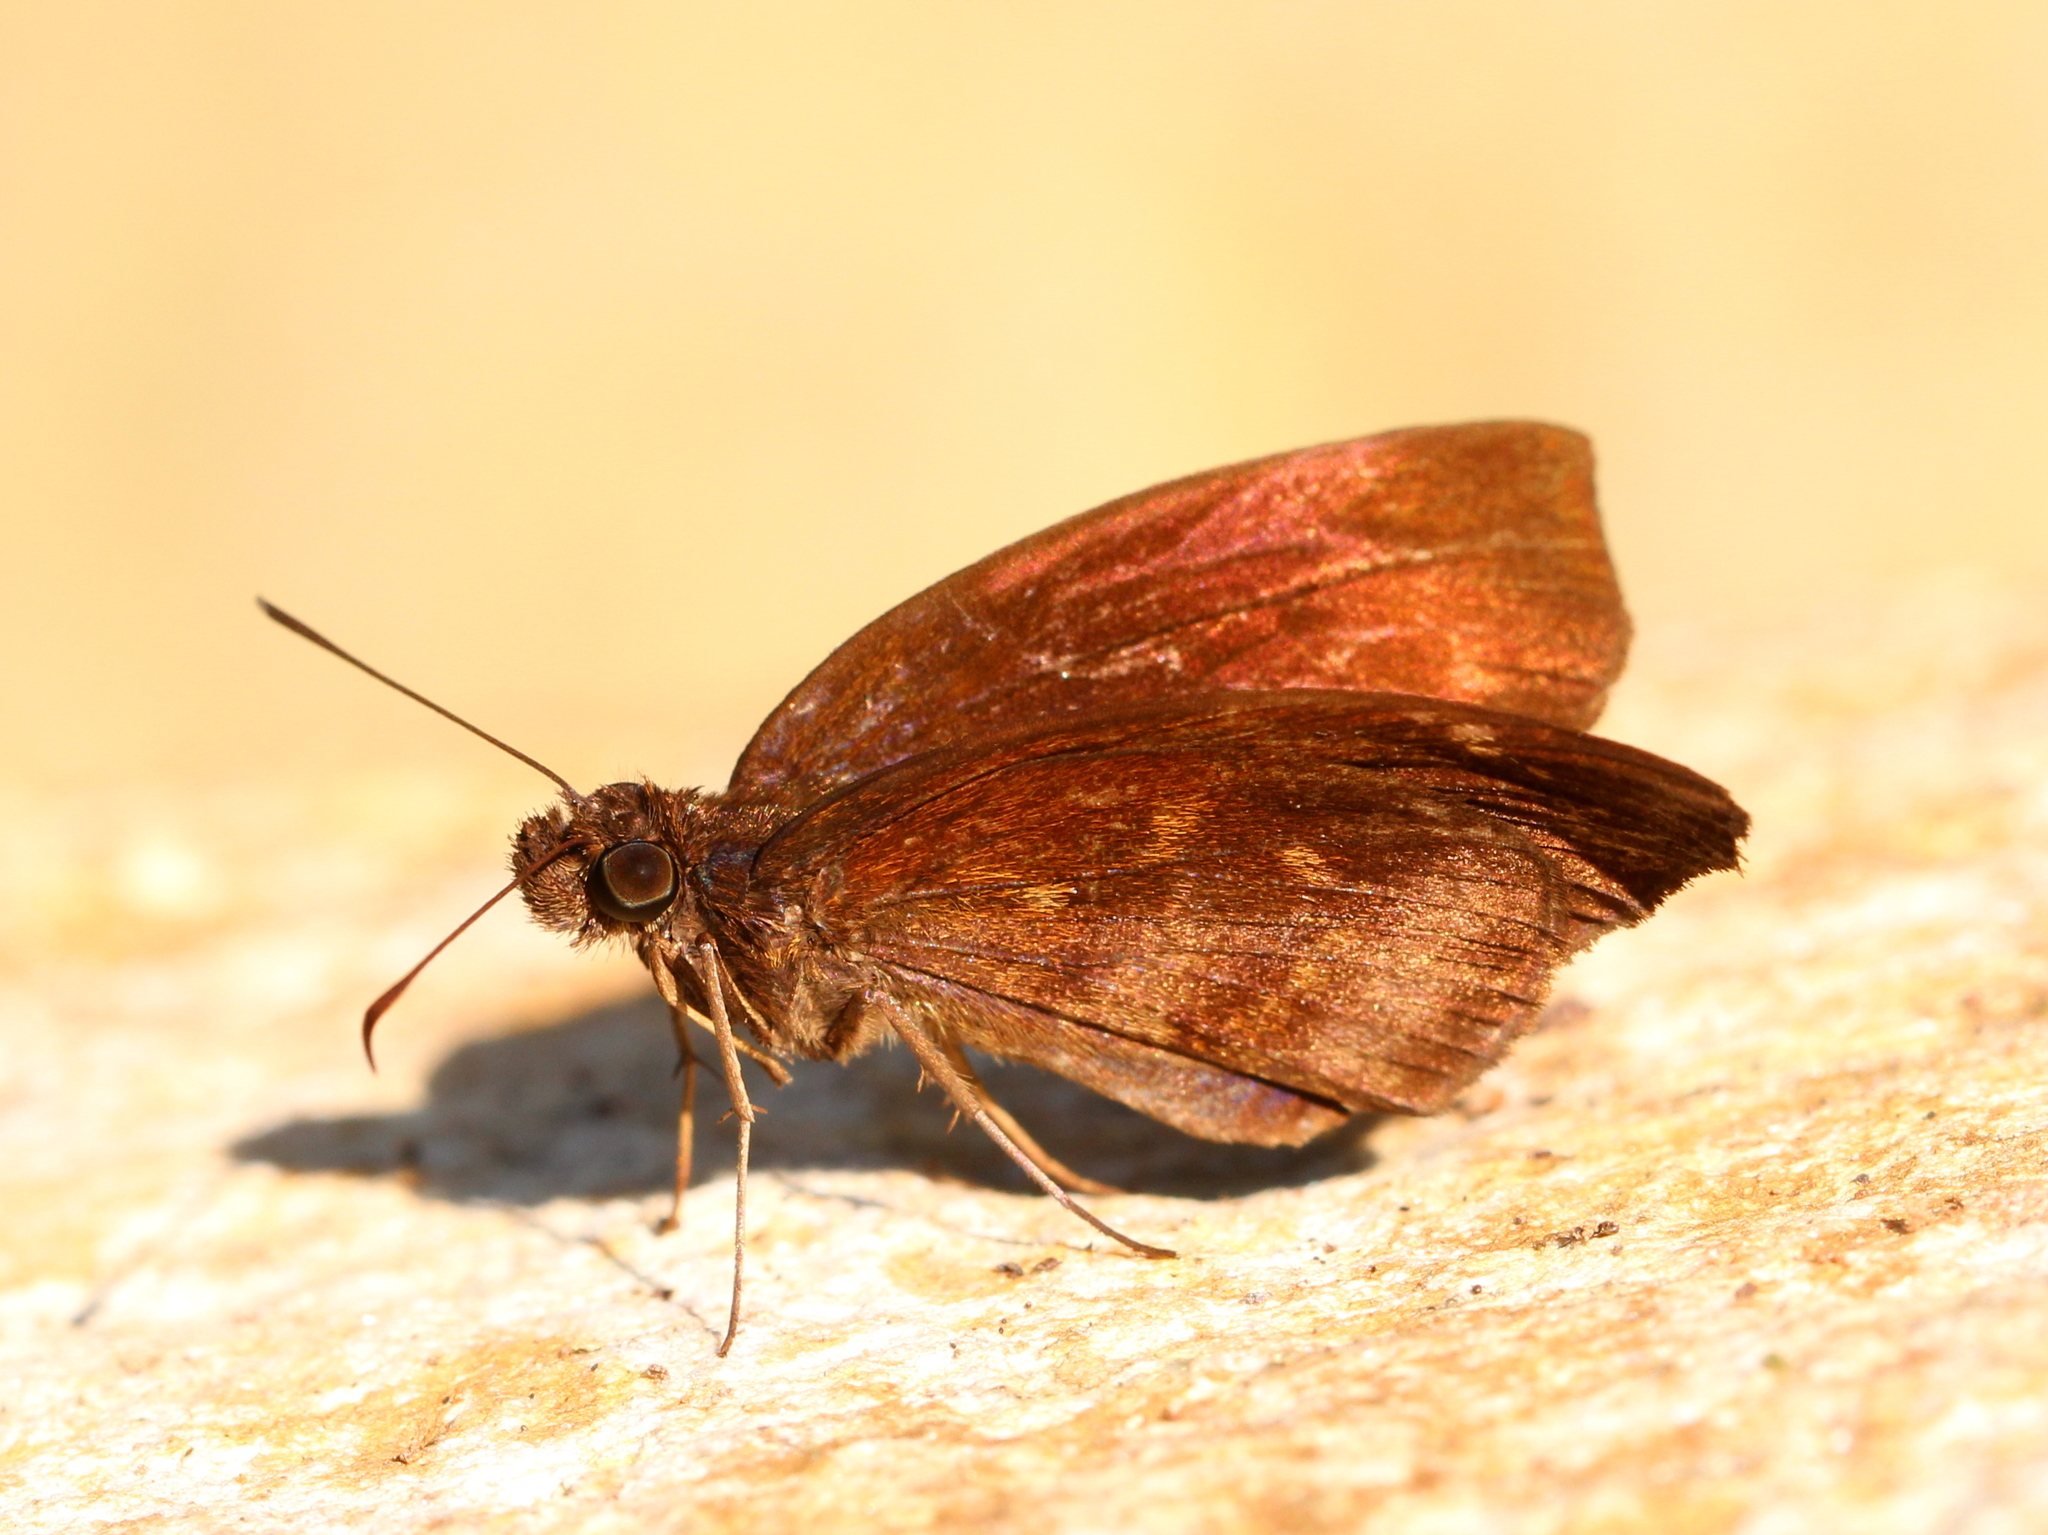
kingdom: Animalia
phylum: Arthropoda
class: Insecta
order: Lepidoptera
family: Hesperiidae
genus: Psolos
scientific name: Psolos fuligo
